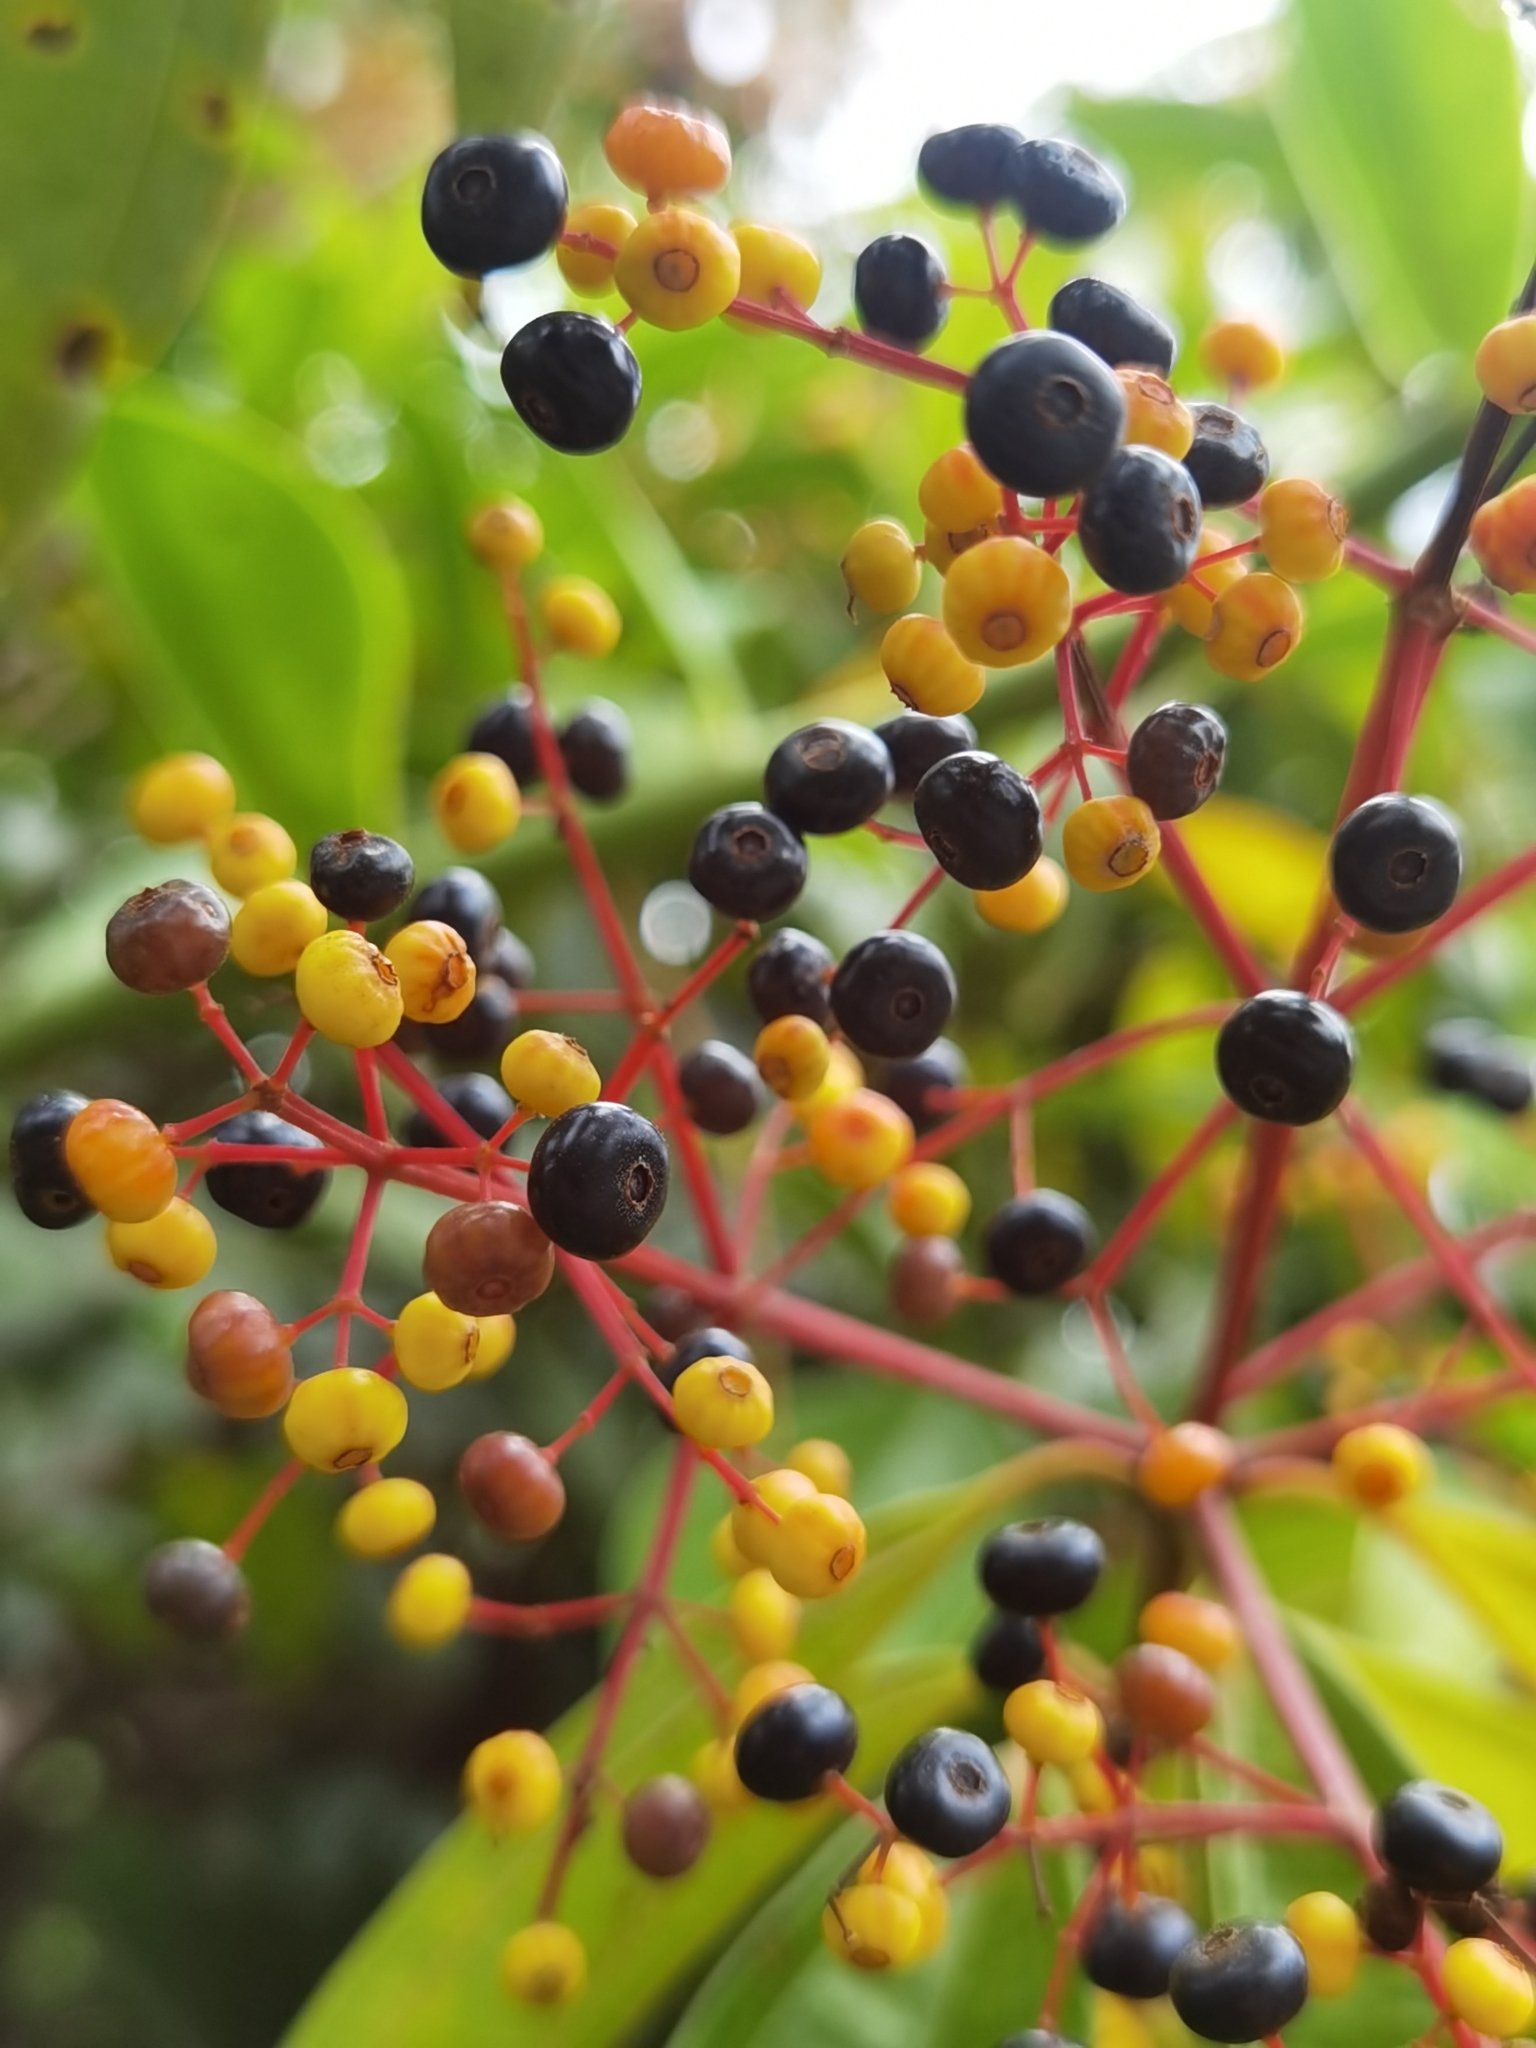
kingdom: Plantae
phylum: Tracheophyta
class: Magnoliopsida
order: Myrtales
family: Melastomataceae
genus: Miconia
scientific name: Miconia longifolia
